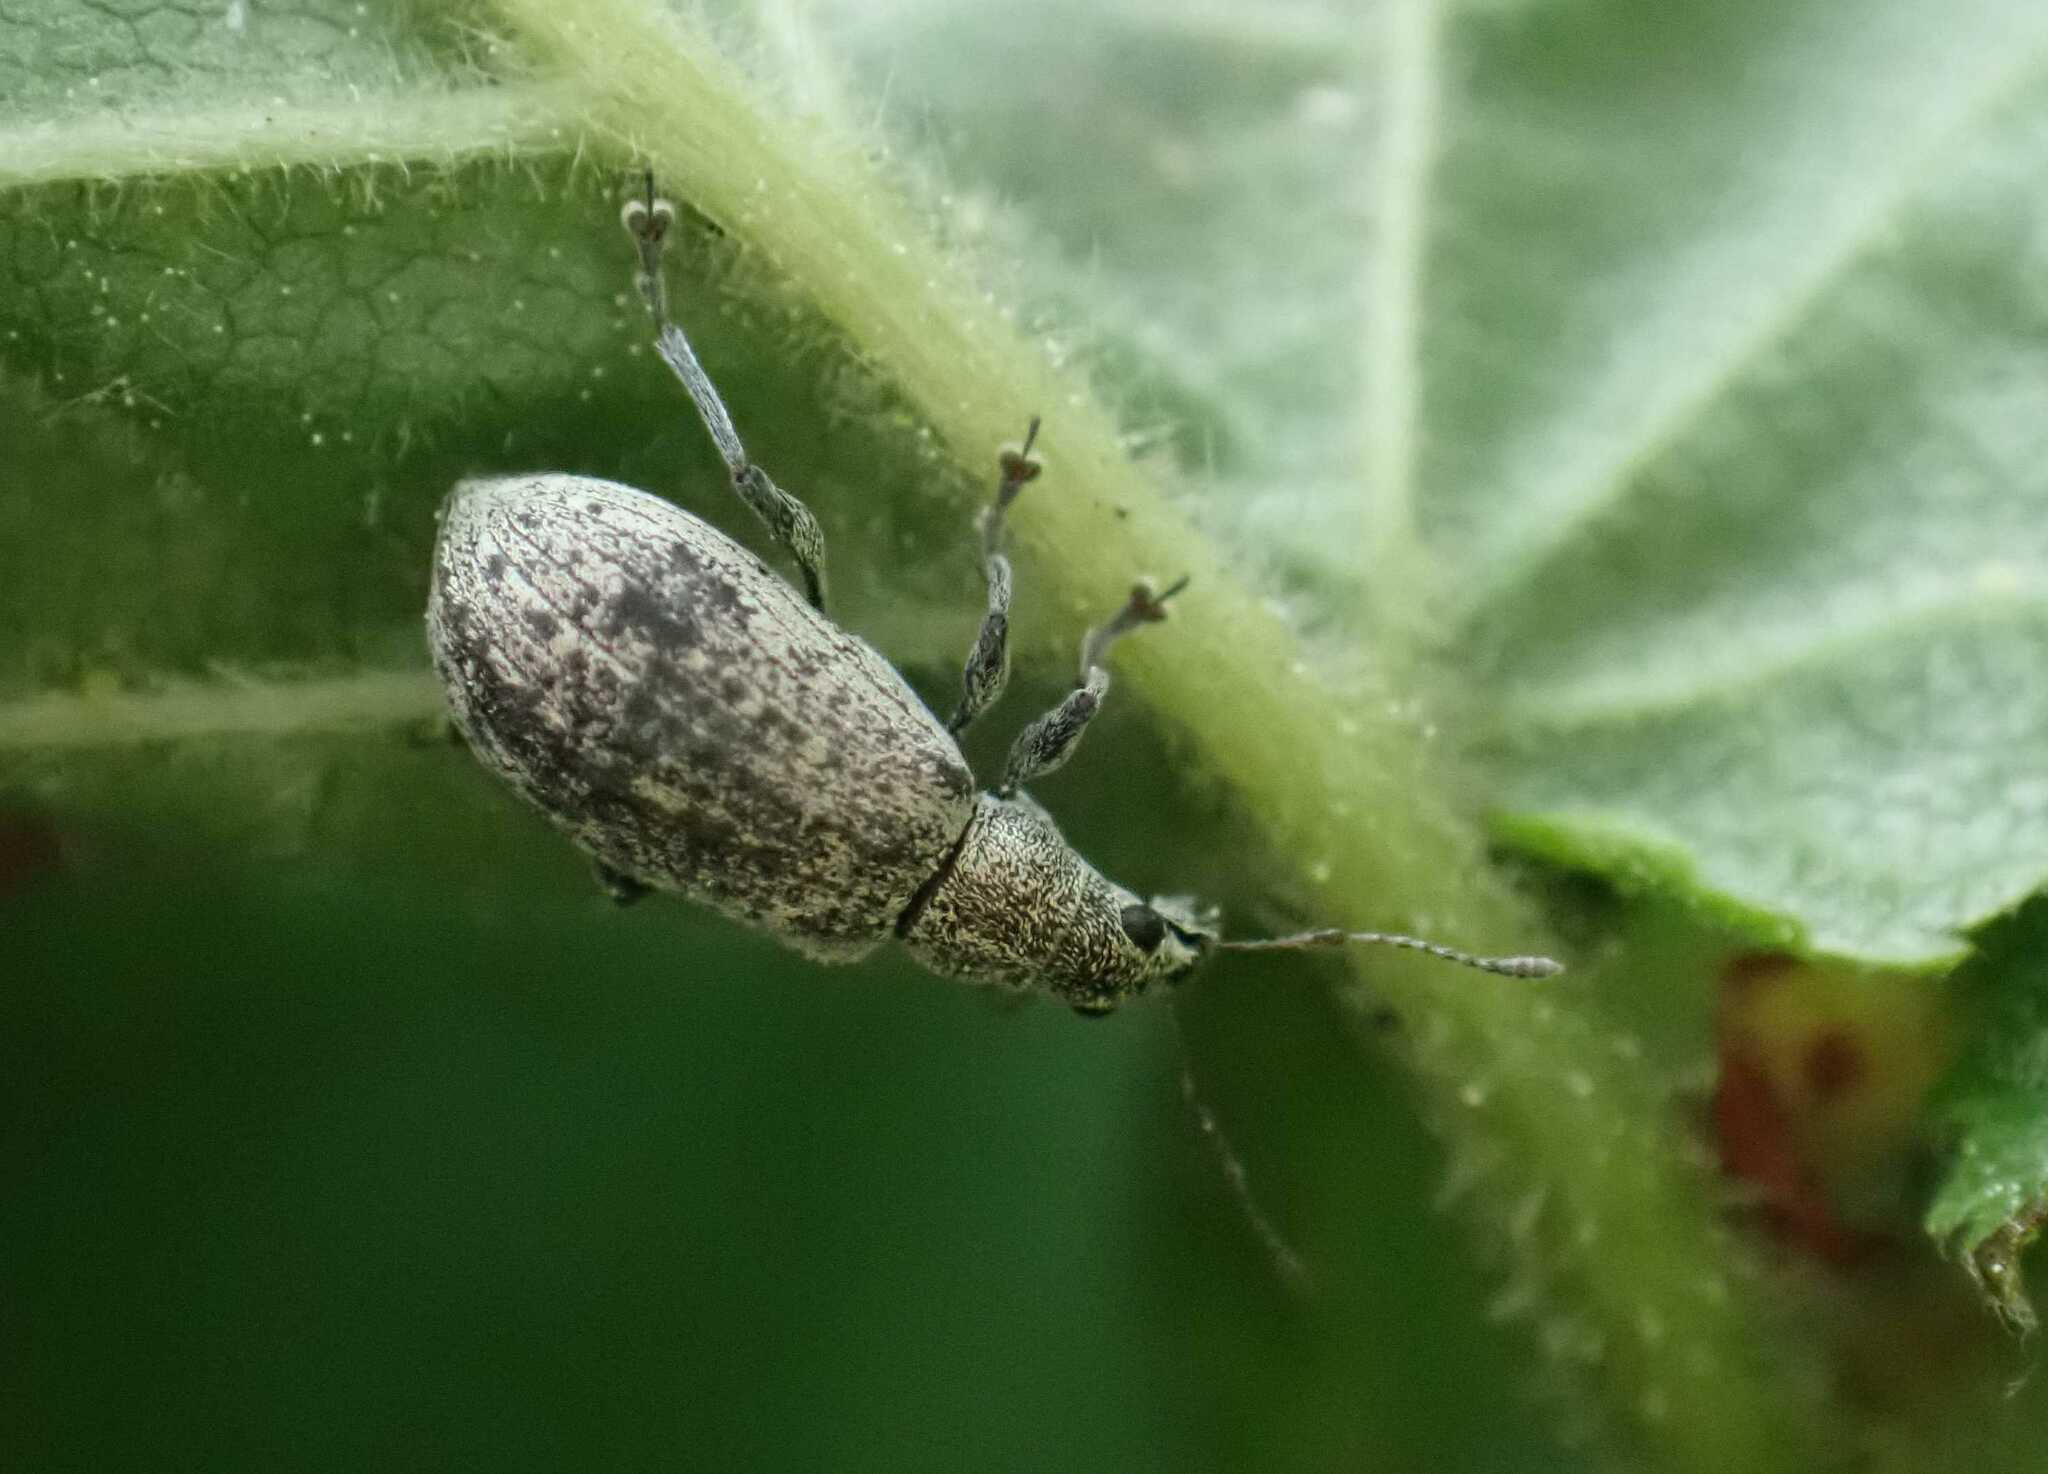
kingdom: Animalia
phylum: Arthropoda
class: Insecta
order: Coleoptera
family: Curculionidae
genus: Polydrusus
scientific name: Polydrusus cervinus
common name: Weevil
